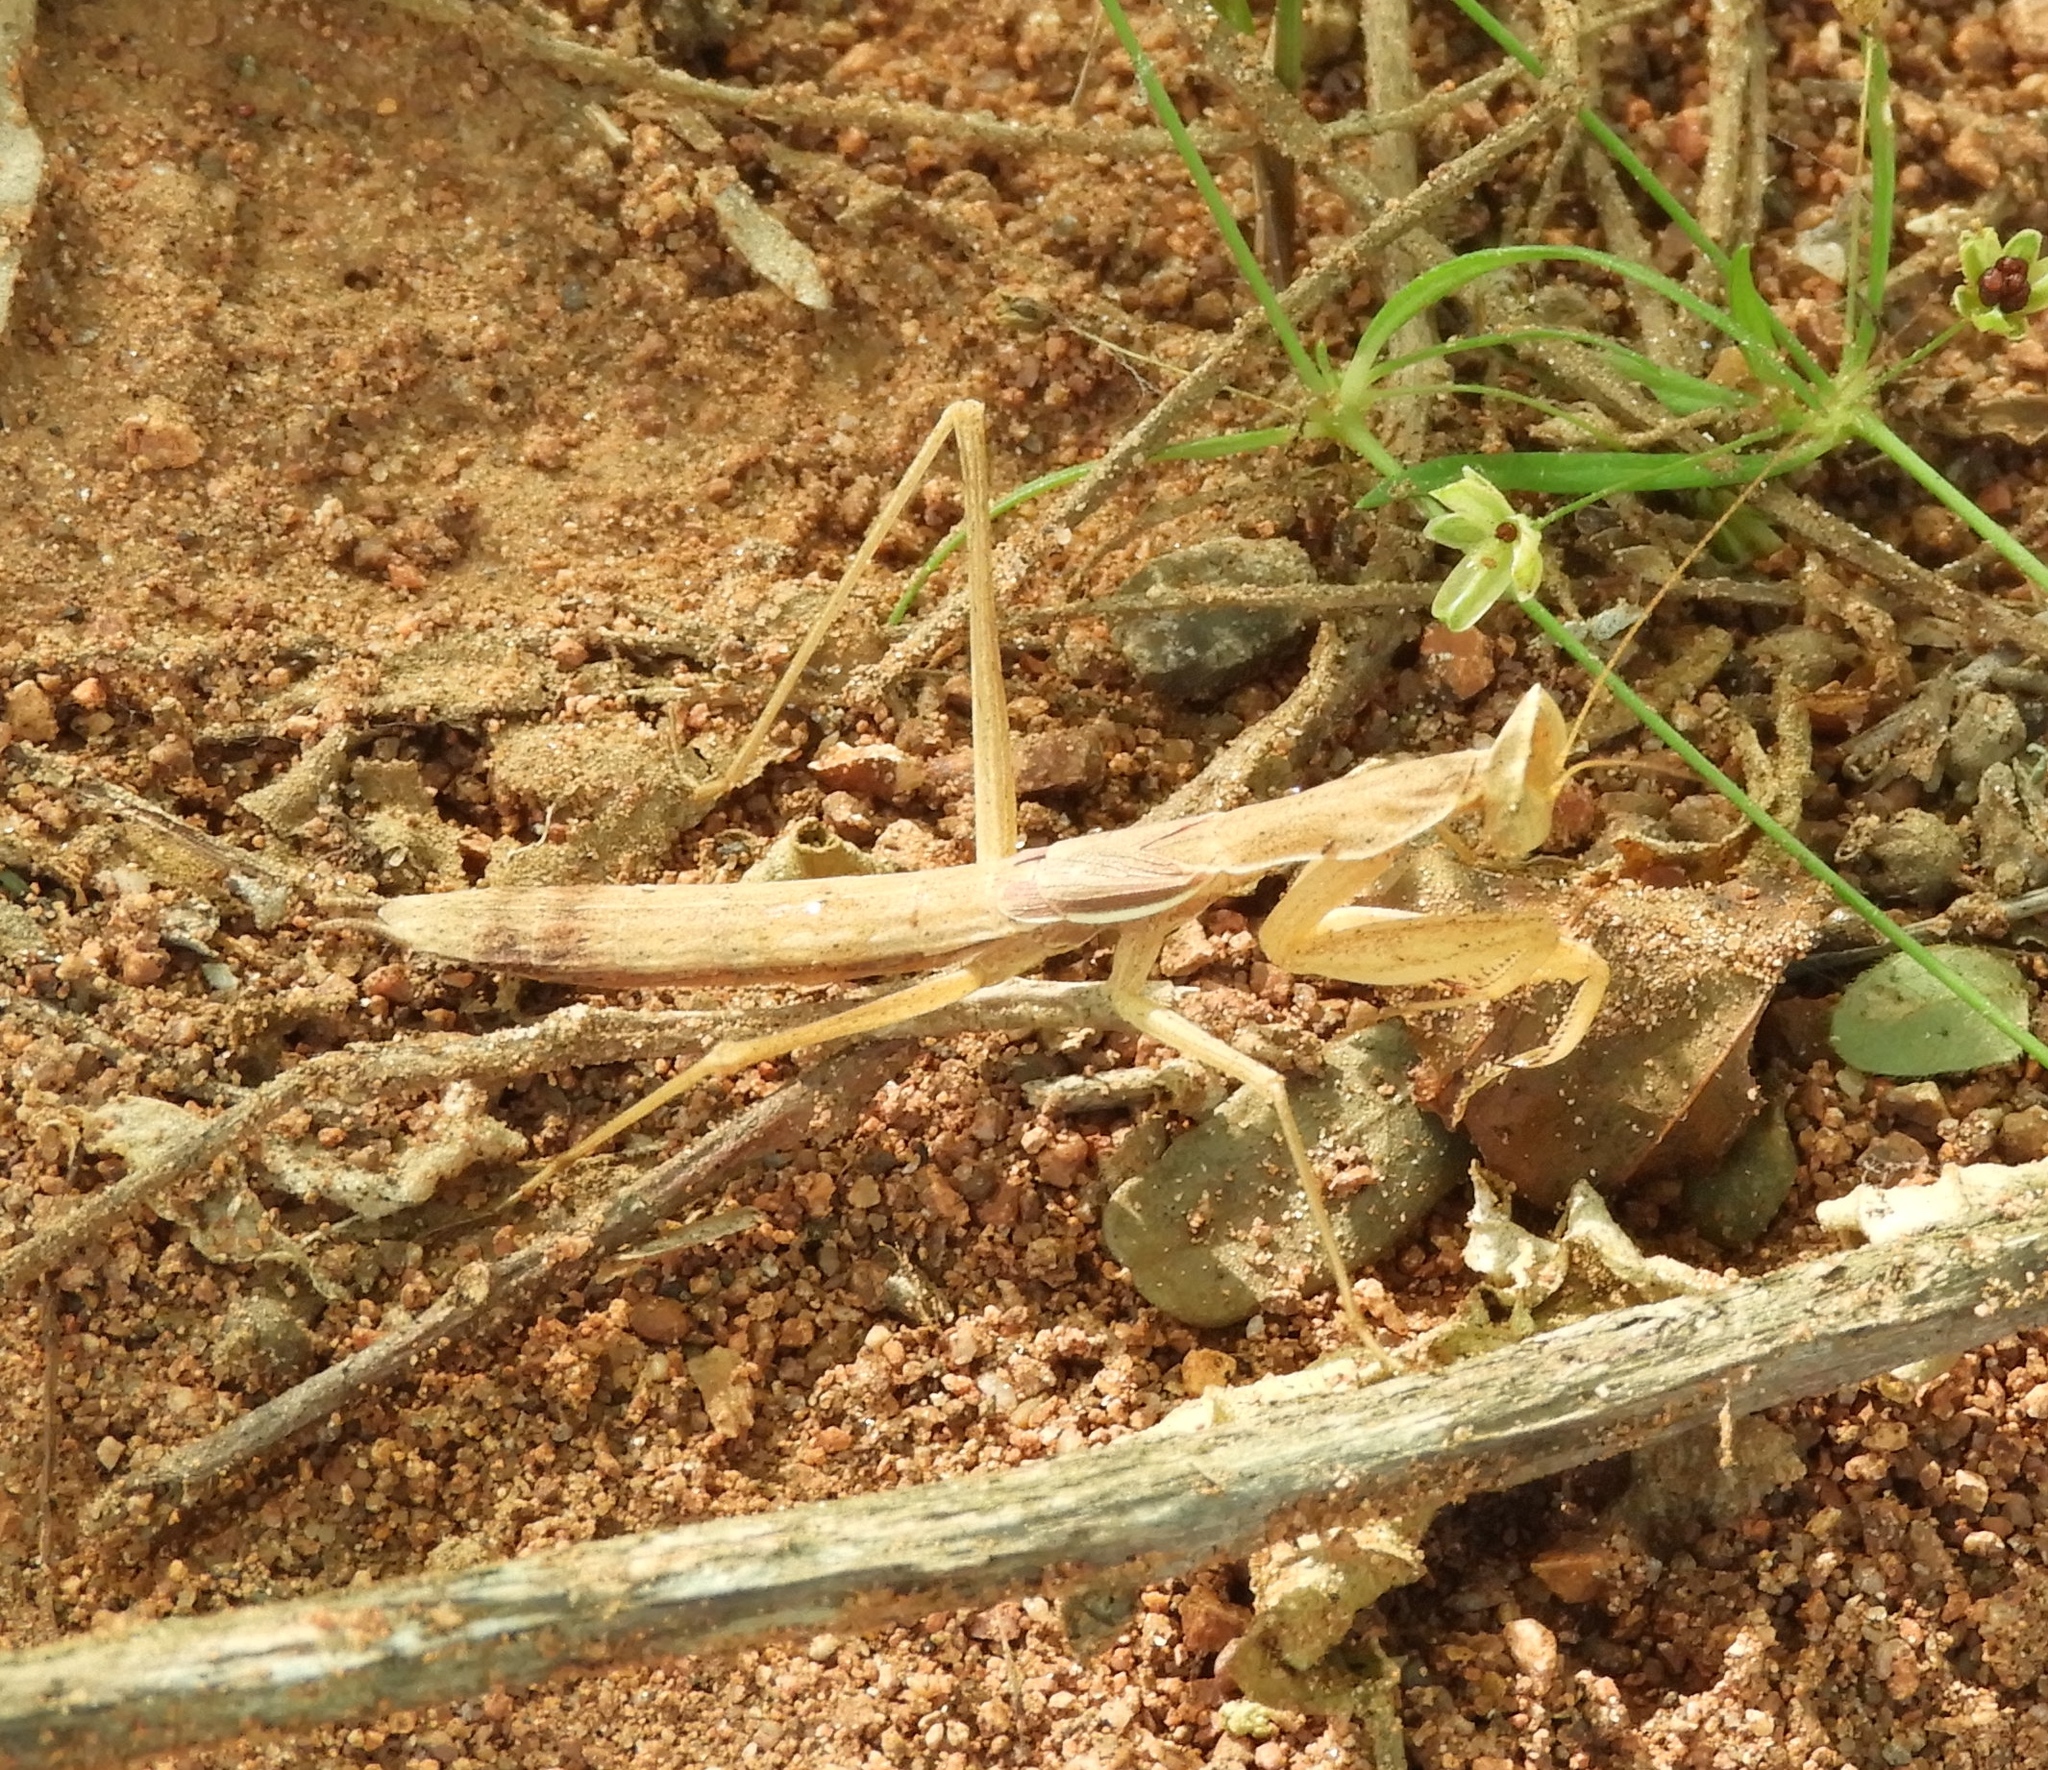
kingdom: Animalia
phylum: Arthropoda
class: Insecta
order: Mantodea
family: Amelidae
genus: Yersinia
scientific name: Yersinia mexicana
